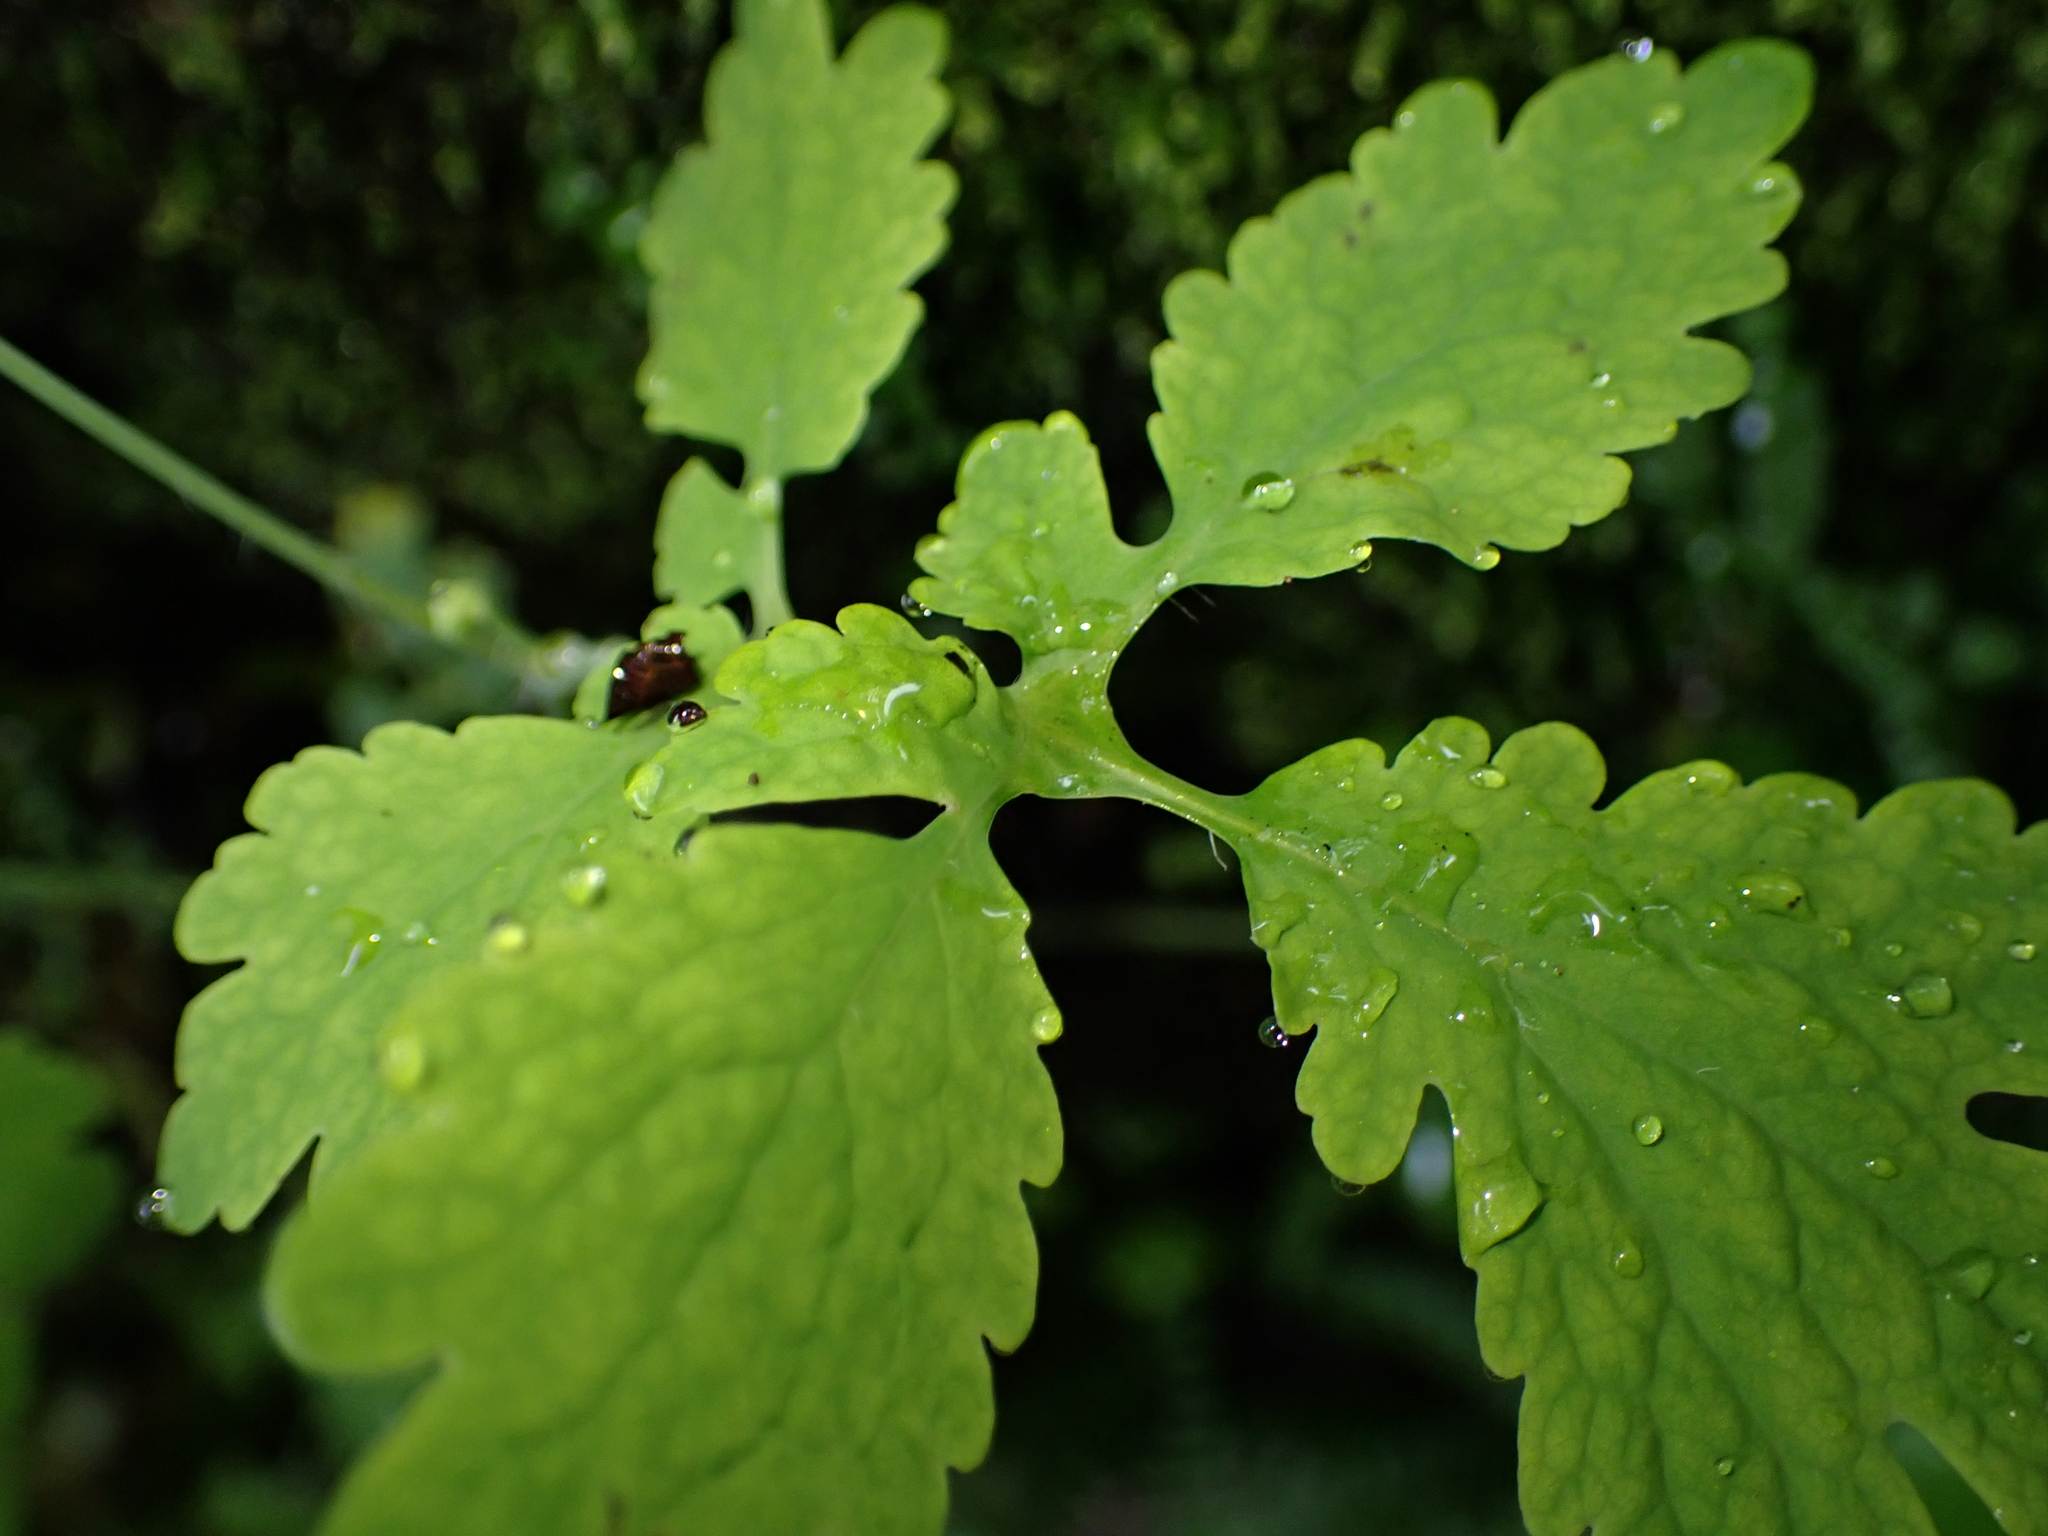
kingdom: Plantae
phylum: Tracheophyta
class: Magnoliopsida
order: Ranunculales
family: Papaveraceae
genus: Chelidonium
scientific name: Chelidonium majus
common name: Greater celandine
